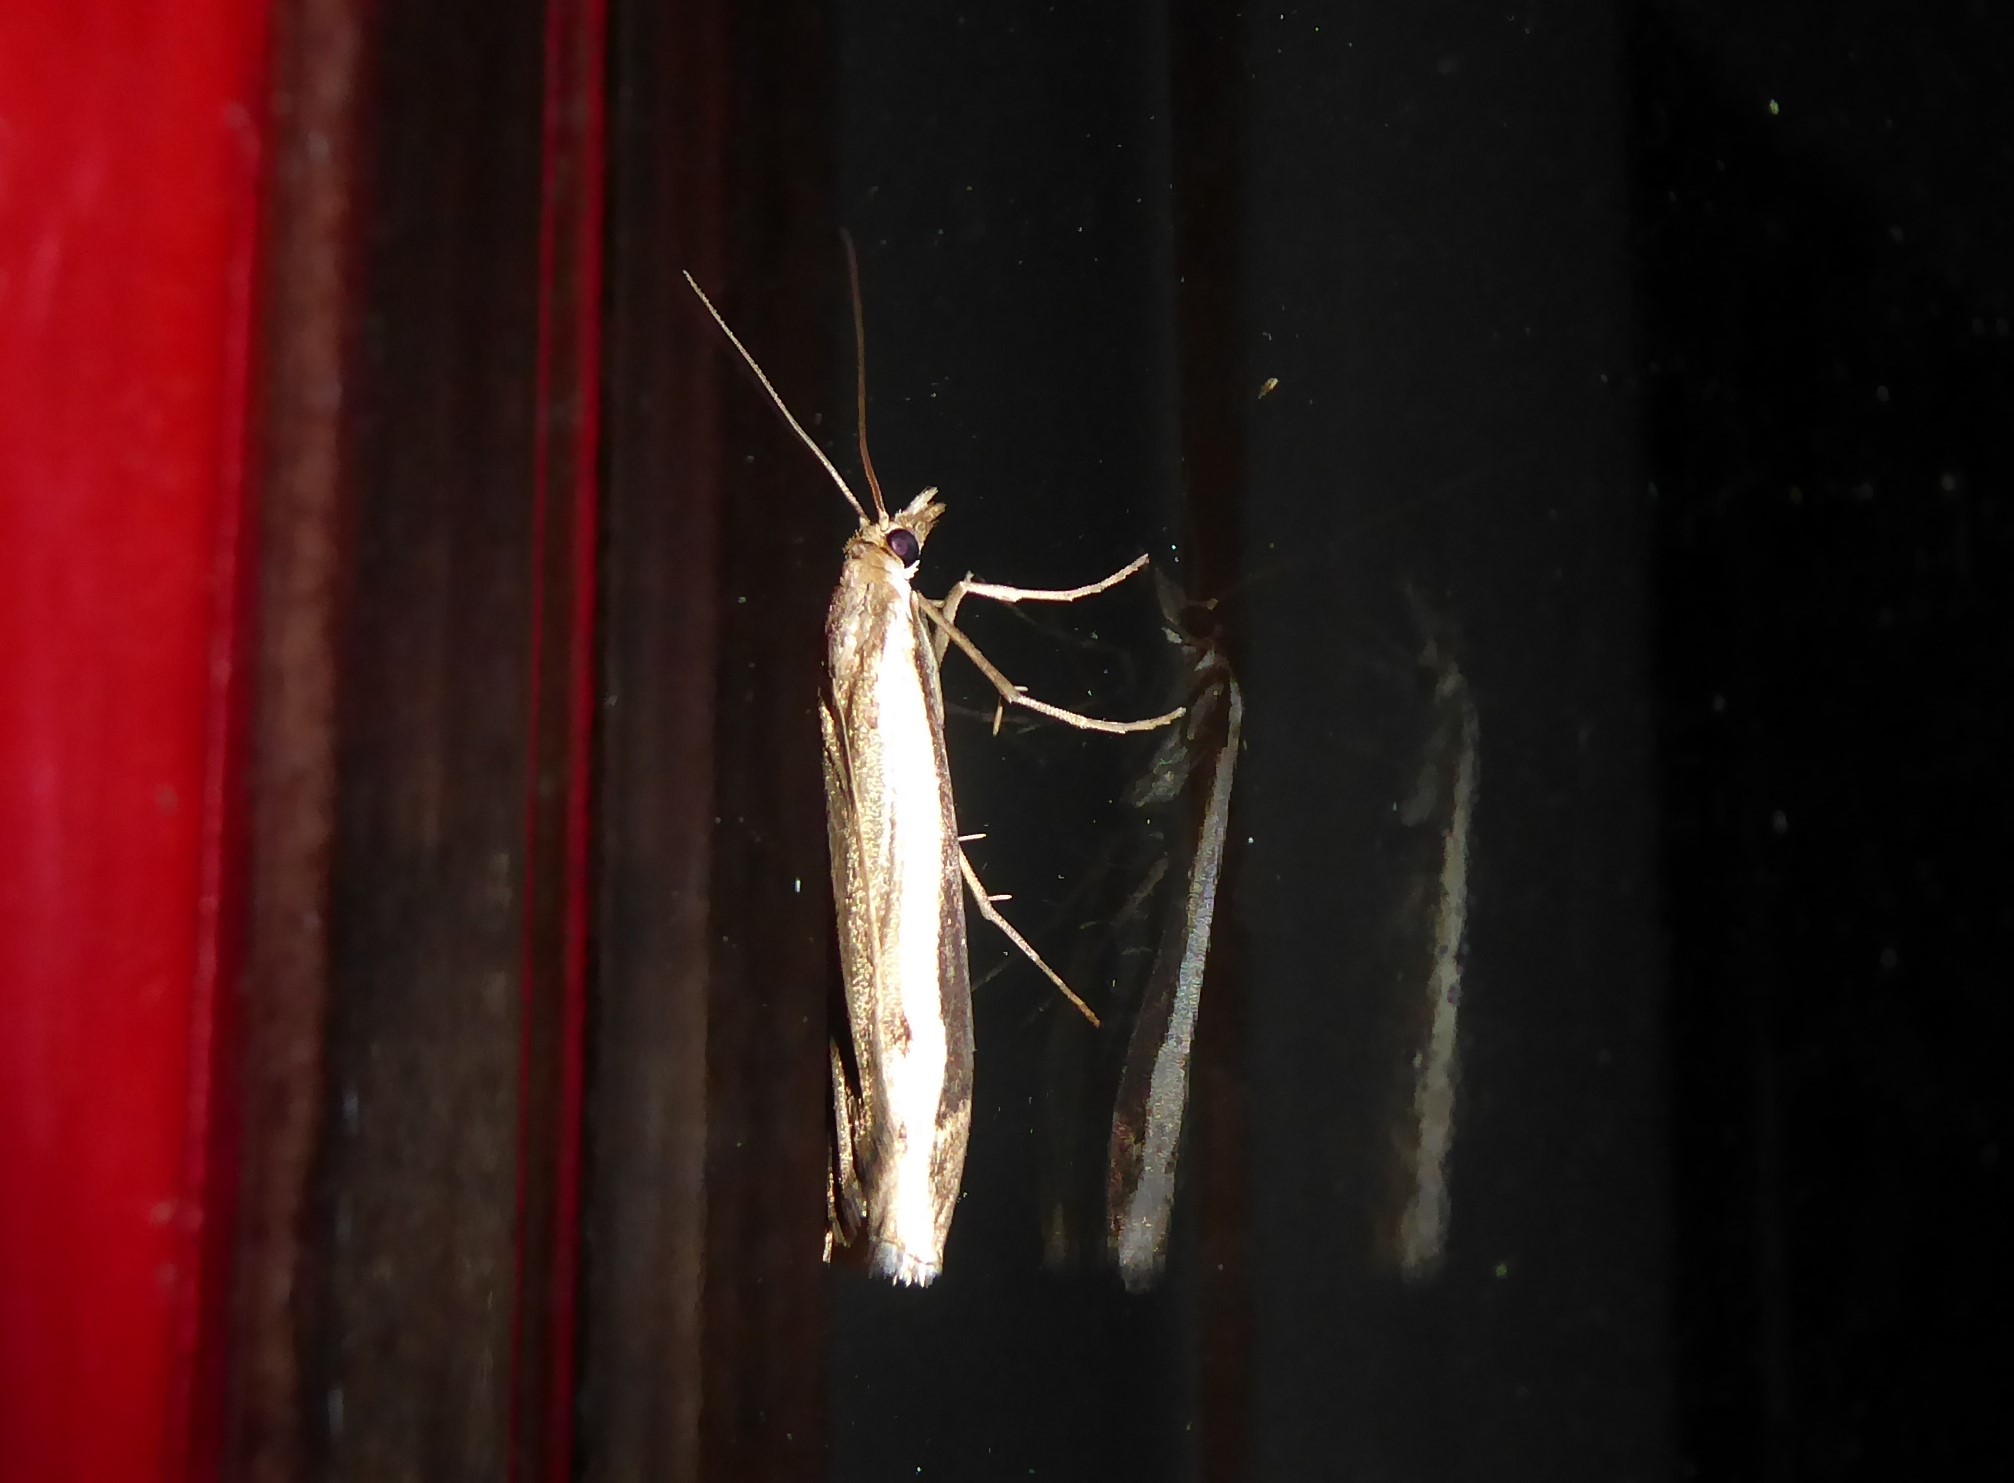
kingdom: Animalia
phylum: Arthropoda
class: Insecta
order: Lepidoptera
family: Crambidae
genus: Orocrambus
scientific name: Orocrambus flexuosellus
